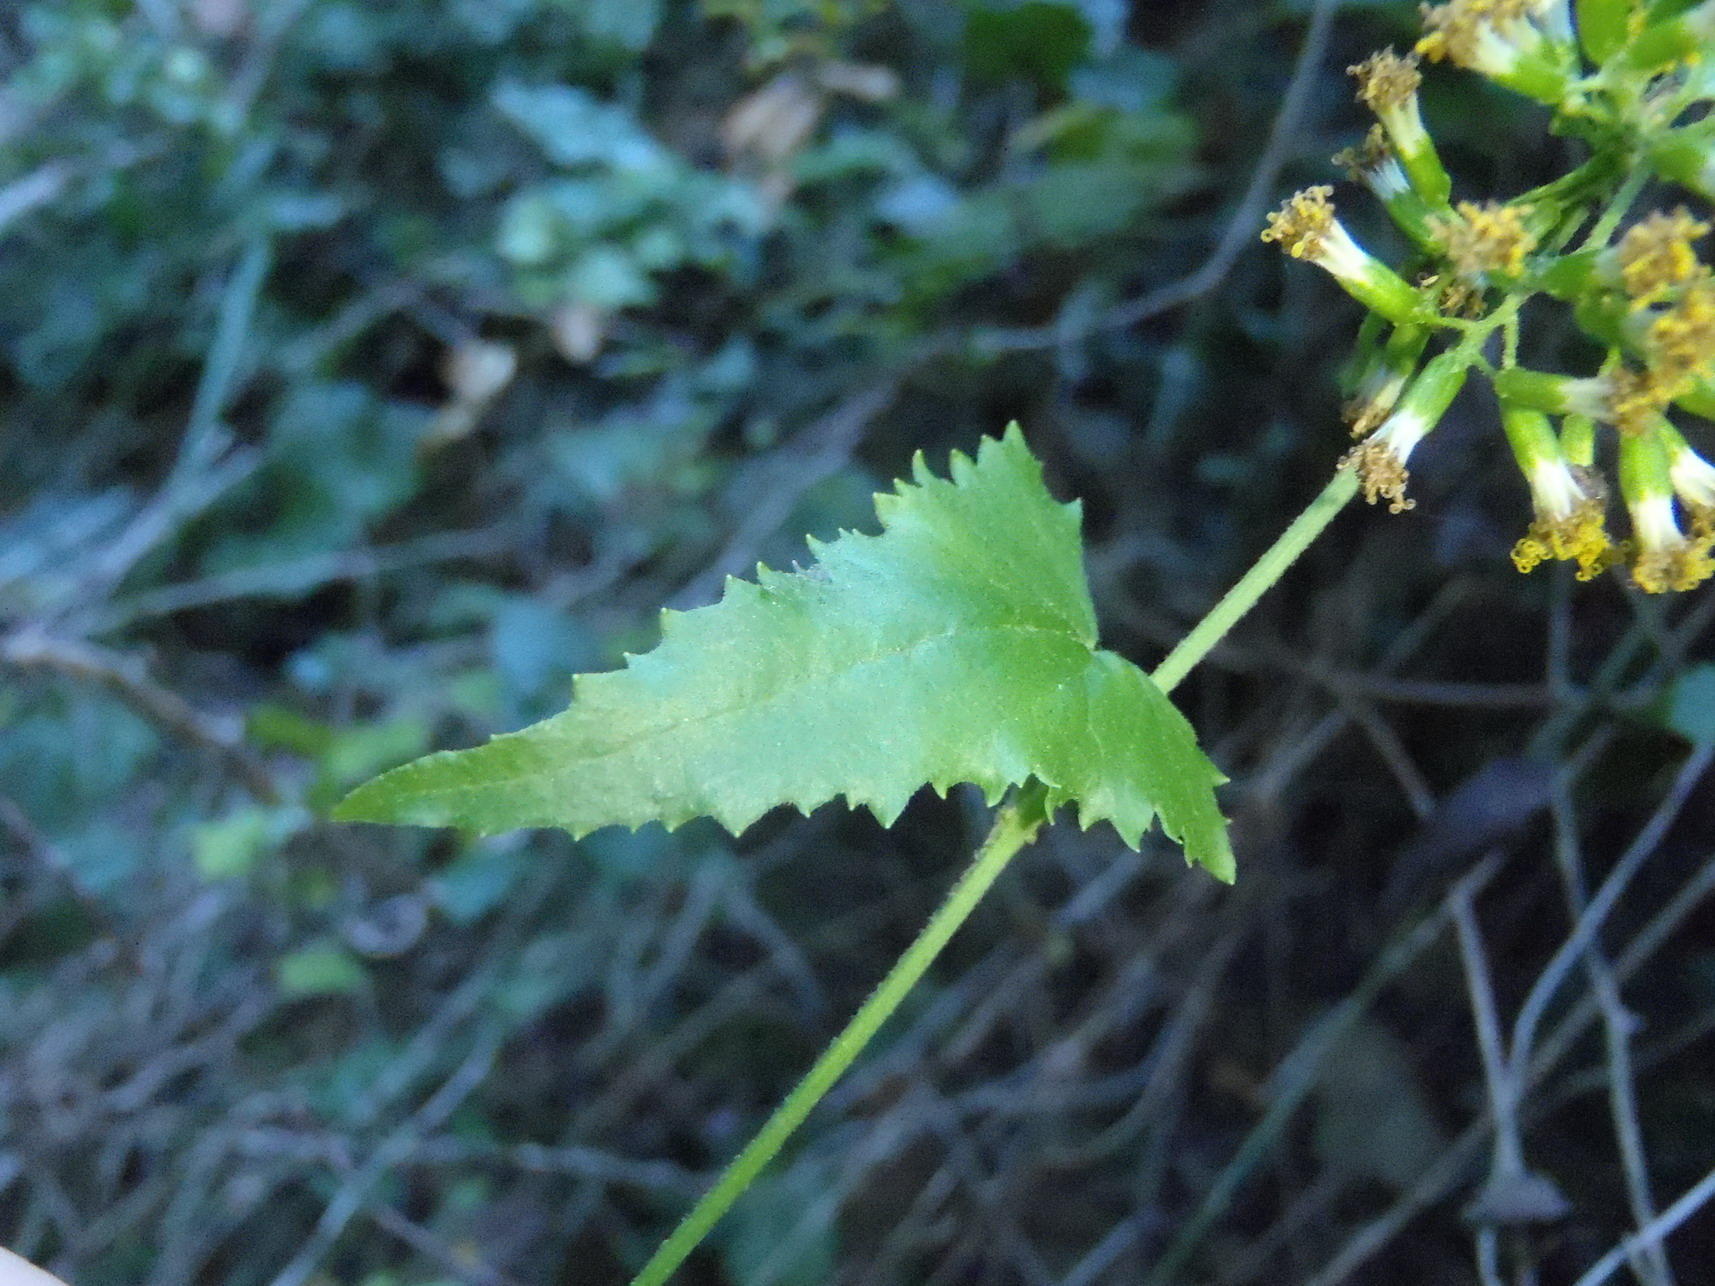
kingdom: Plantae
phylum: Tracheophyta
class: Magnoliopsida
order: Asterales
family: Asteraceae
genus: Senecio
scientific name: Senecio deltoideus
